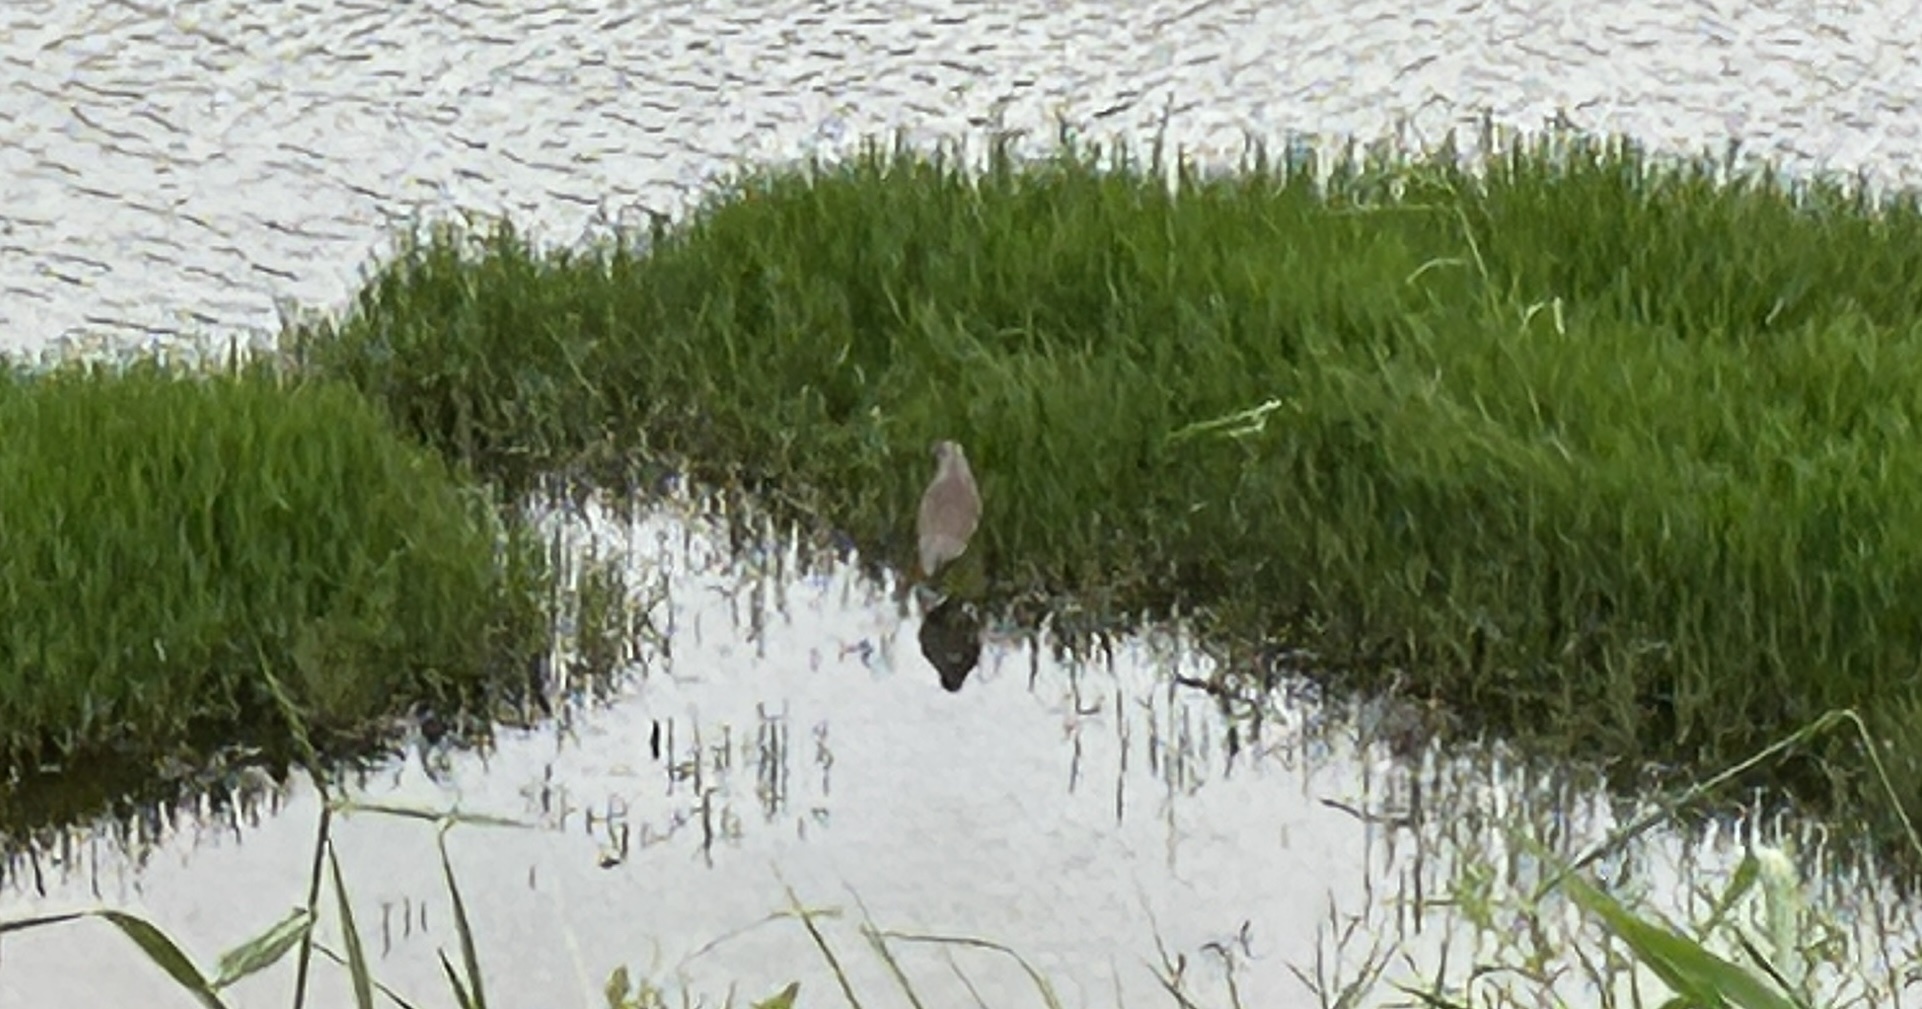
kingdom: Animalia
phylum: Chordata
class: Aves
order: Pelecaniformes
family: Ardeidae
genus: Ardeola
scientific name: Ardeola bacchus
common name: Chinese pond heron
